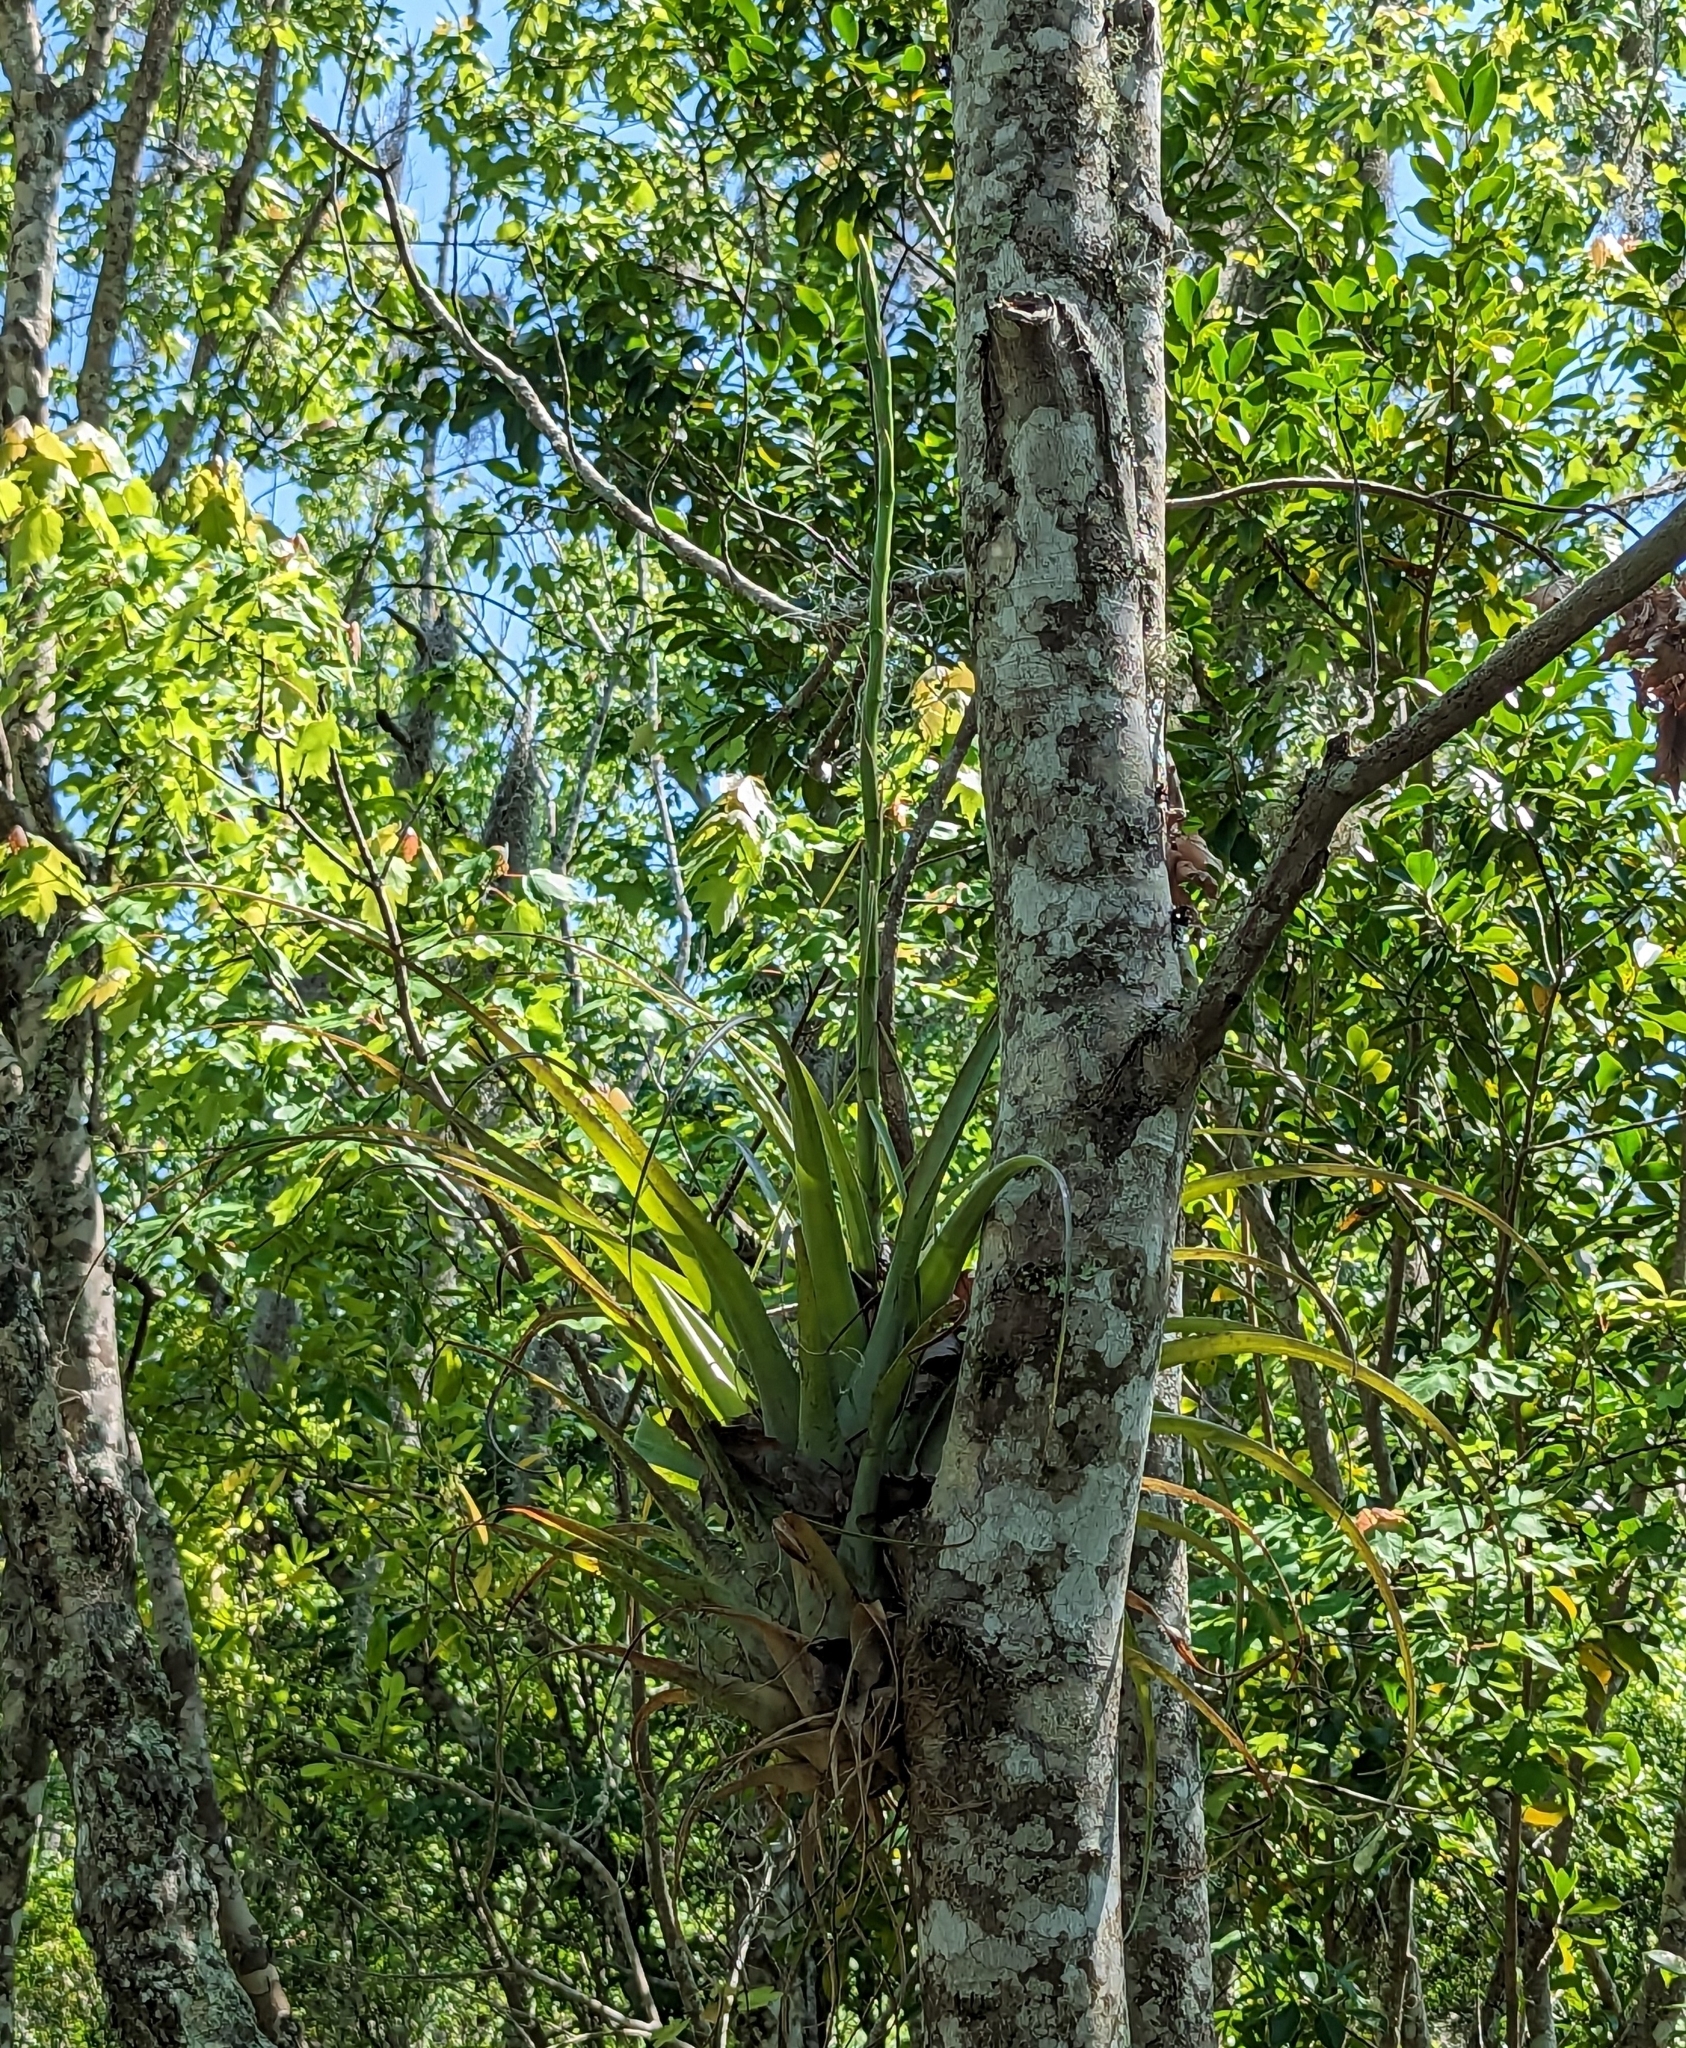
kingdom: Plantae
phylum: Tracheophyta
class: Liliopsida
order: Poales
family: Bromeliaceae
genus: Tillandsia
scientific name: Tillandsia utriculata
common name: Wild pine
